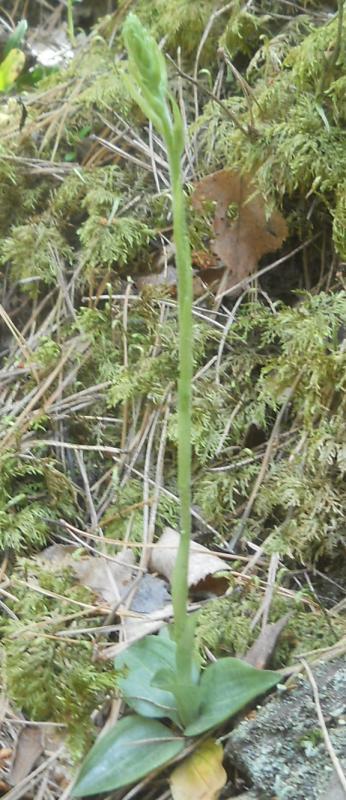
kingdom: Plantae
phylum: Tracheophyta
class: Liliopsida
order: Asparagales
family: Orchidaceae
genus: Goodyera
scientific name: Goodyera repens
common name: Creeping lady's-tresses
